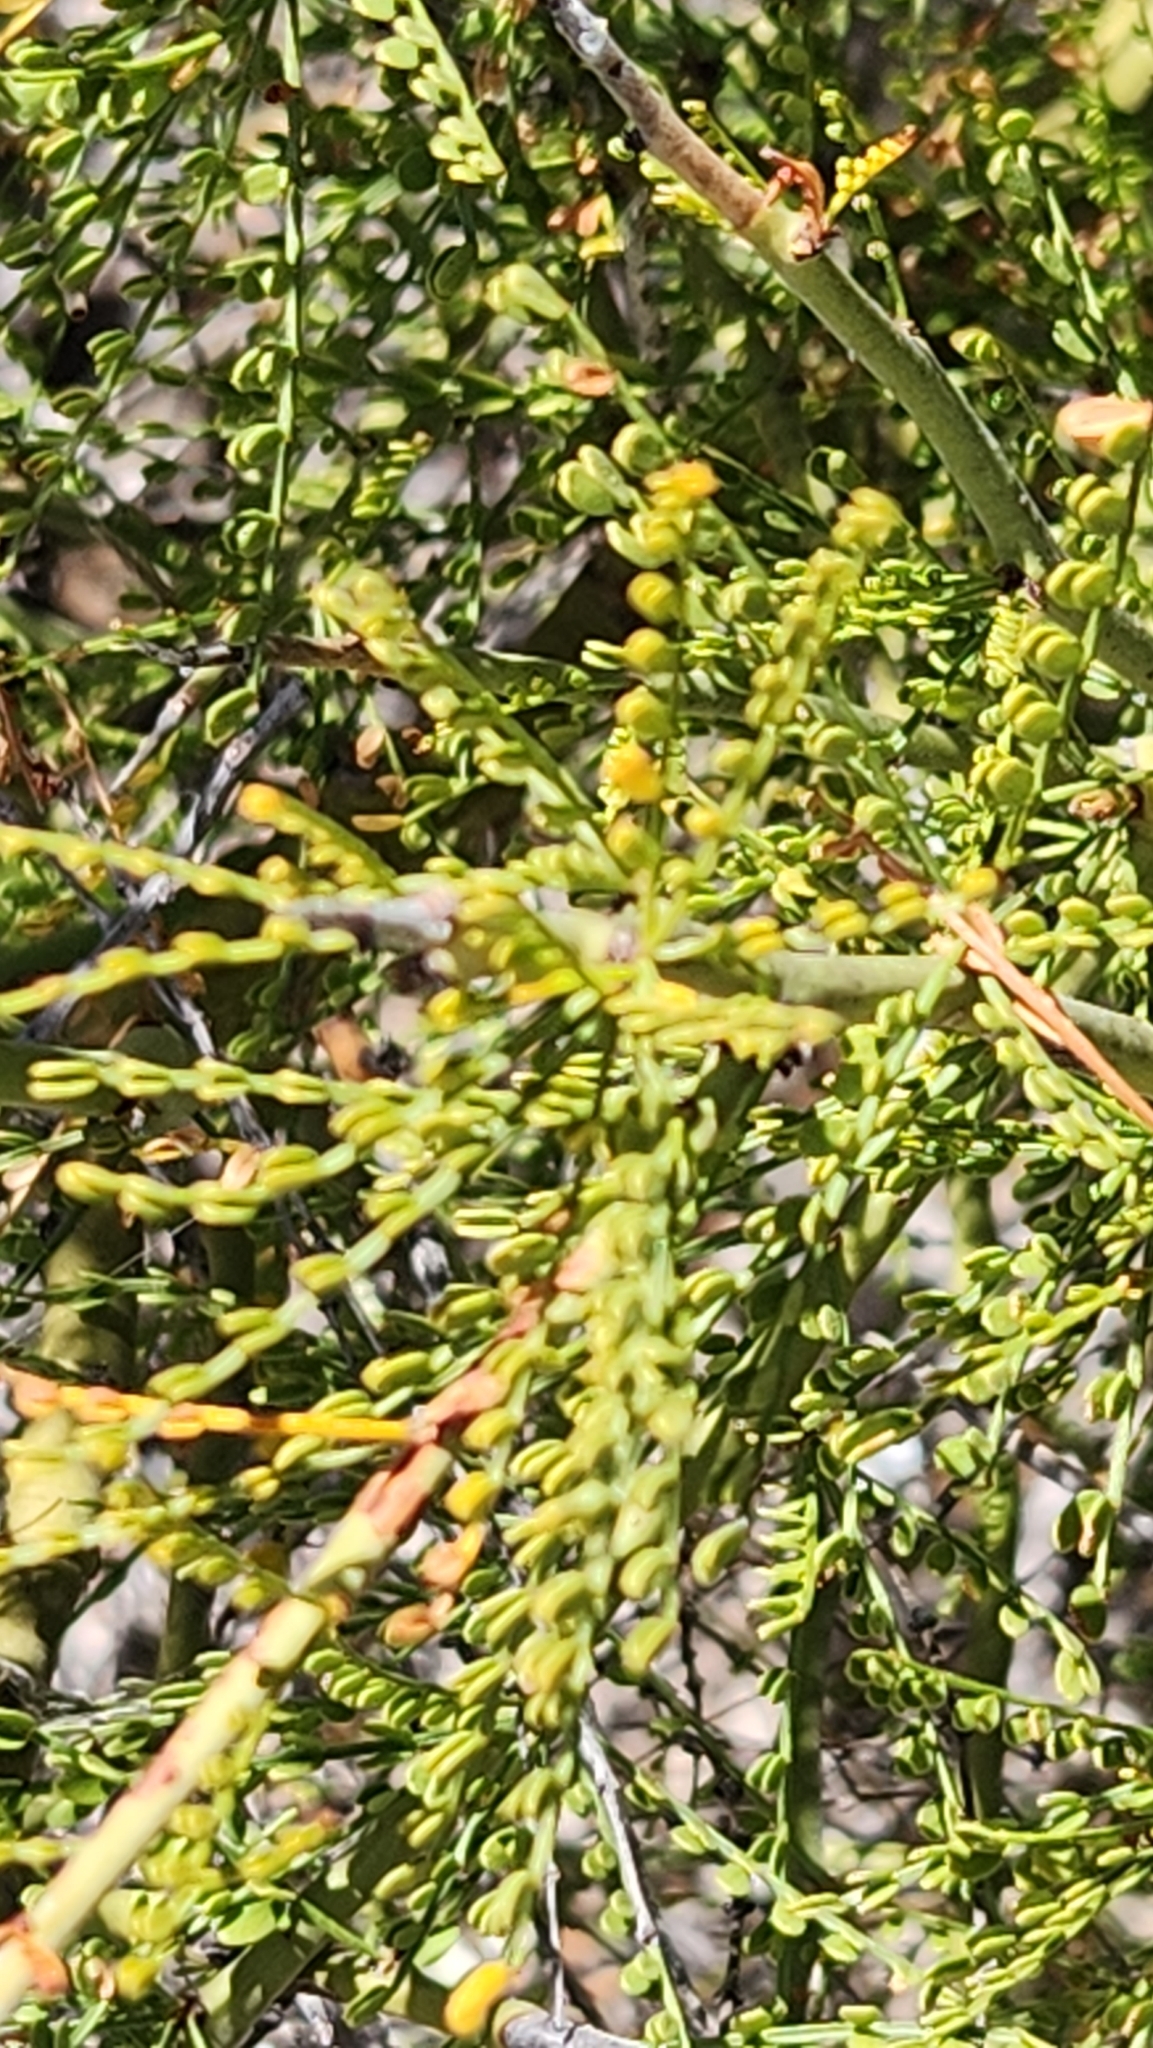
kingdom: Plantae
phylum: Tracheophyta
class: Magnoliopsida
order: Fabales
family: Fabaceae
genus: Parkinsonia
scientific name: Parkinsonia microphylla
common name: Yellow paloverde
